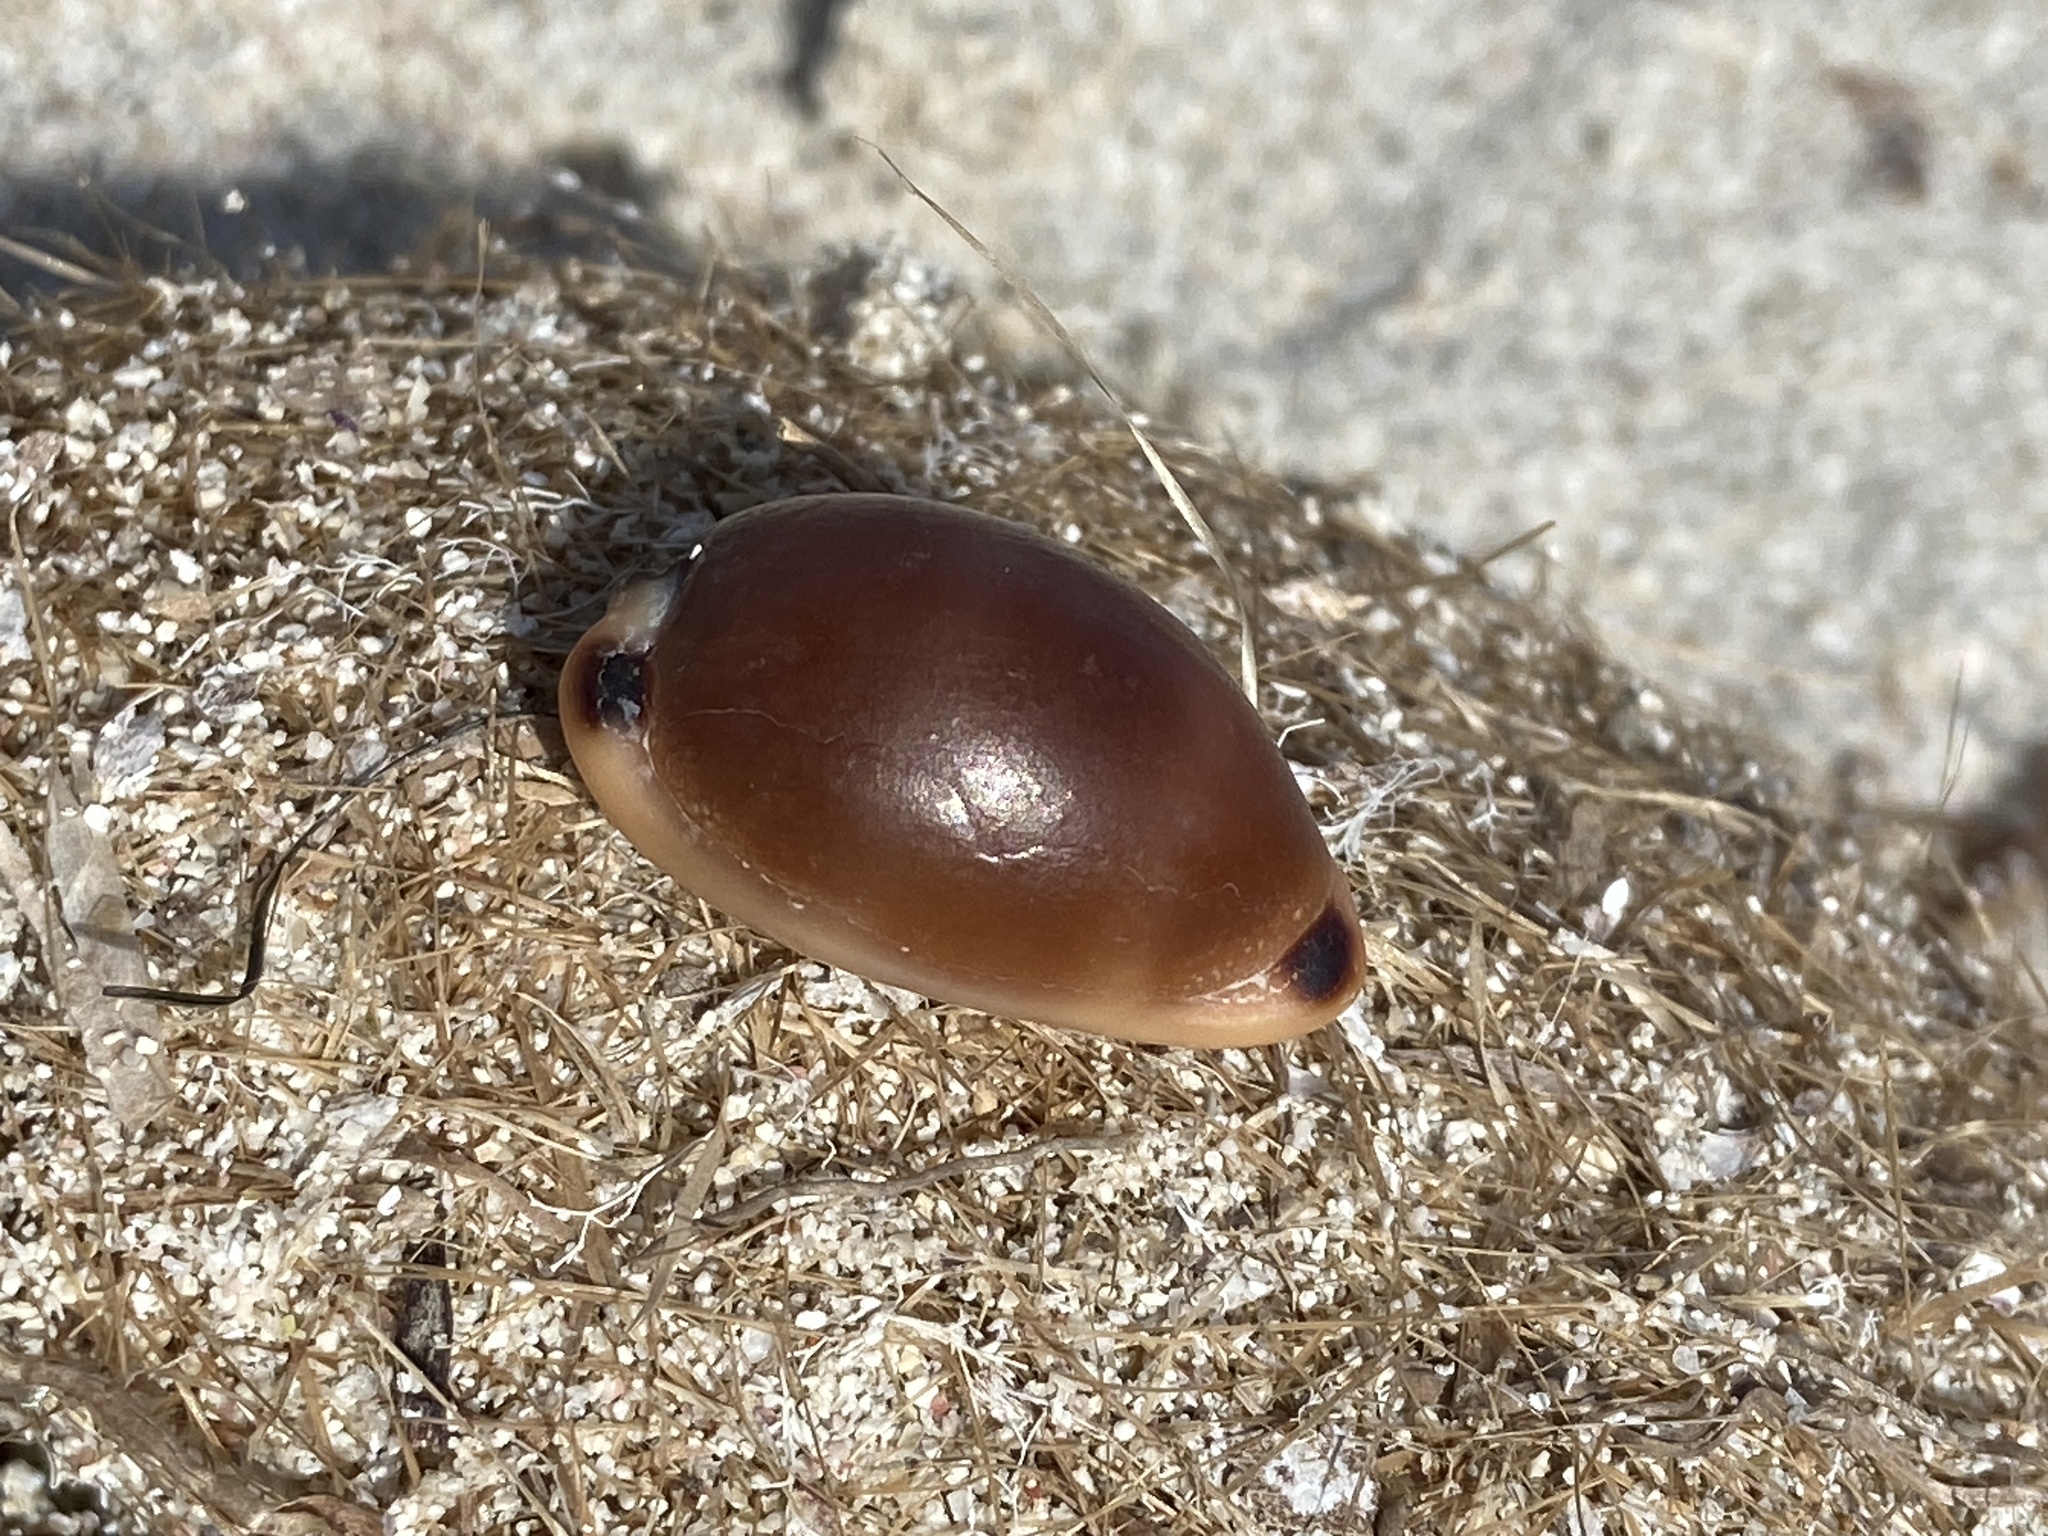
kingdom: Animalia
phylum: Mollusca
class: Gastropoda
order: Littorinimorpha
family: Cypraeidae
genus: Luria
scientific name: Luria lurida
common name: Brown cowry
